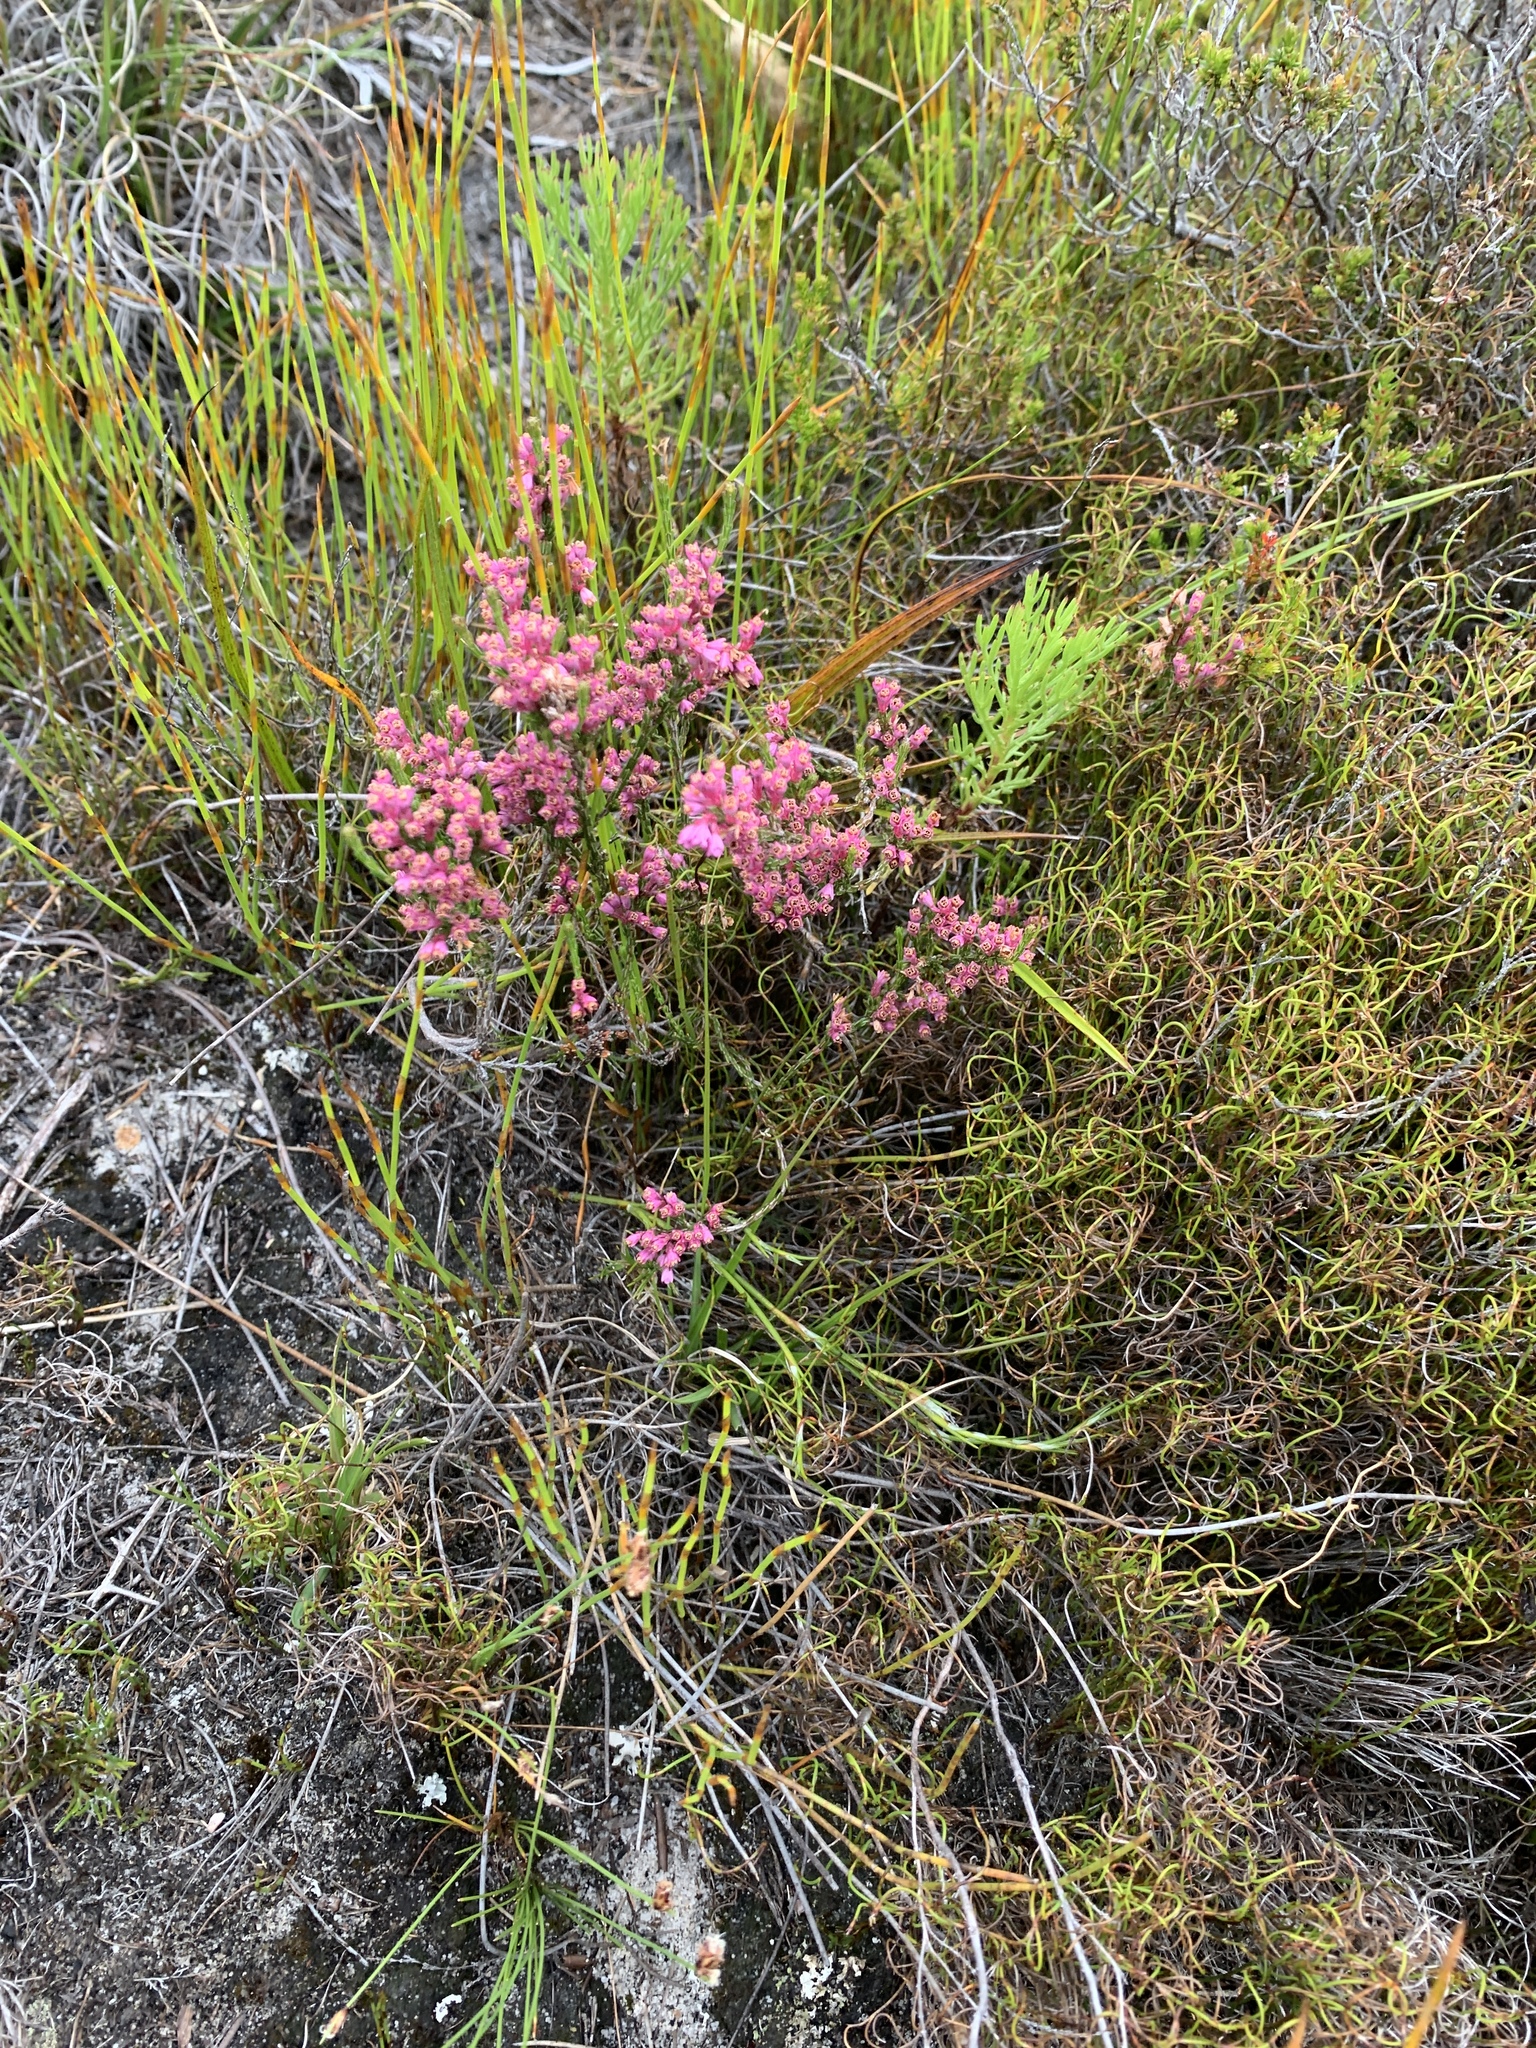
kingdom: Plantae
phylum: Tracheophyta
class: Magnoliopsida
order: Ericales
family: Ericaceae
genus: Erica
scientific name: Erica tenuifolia
